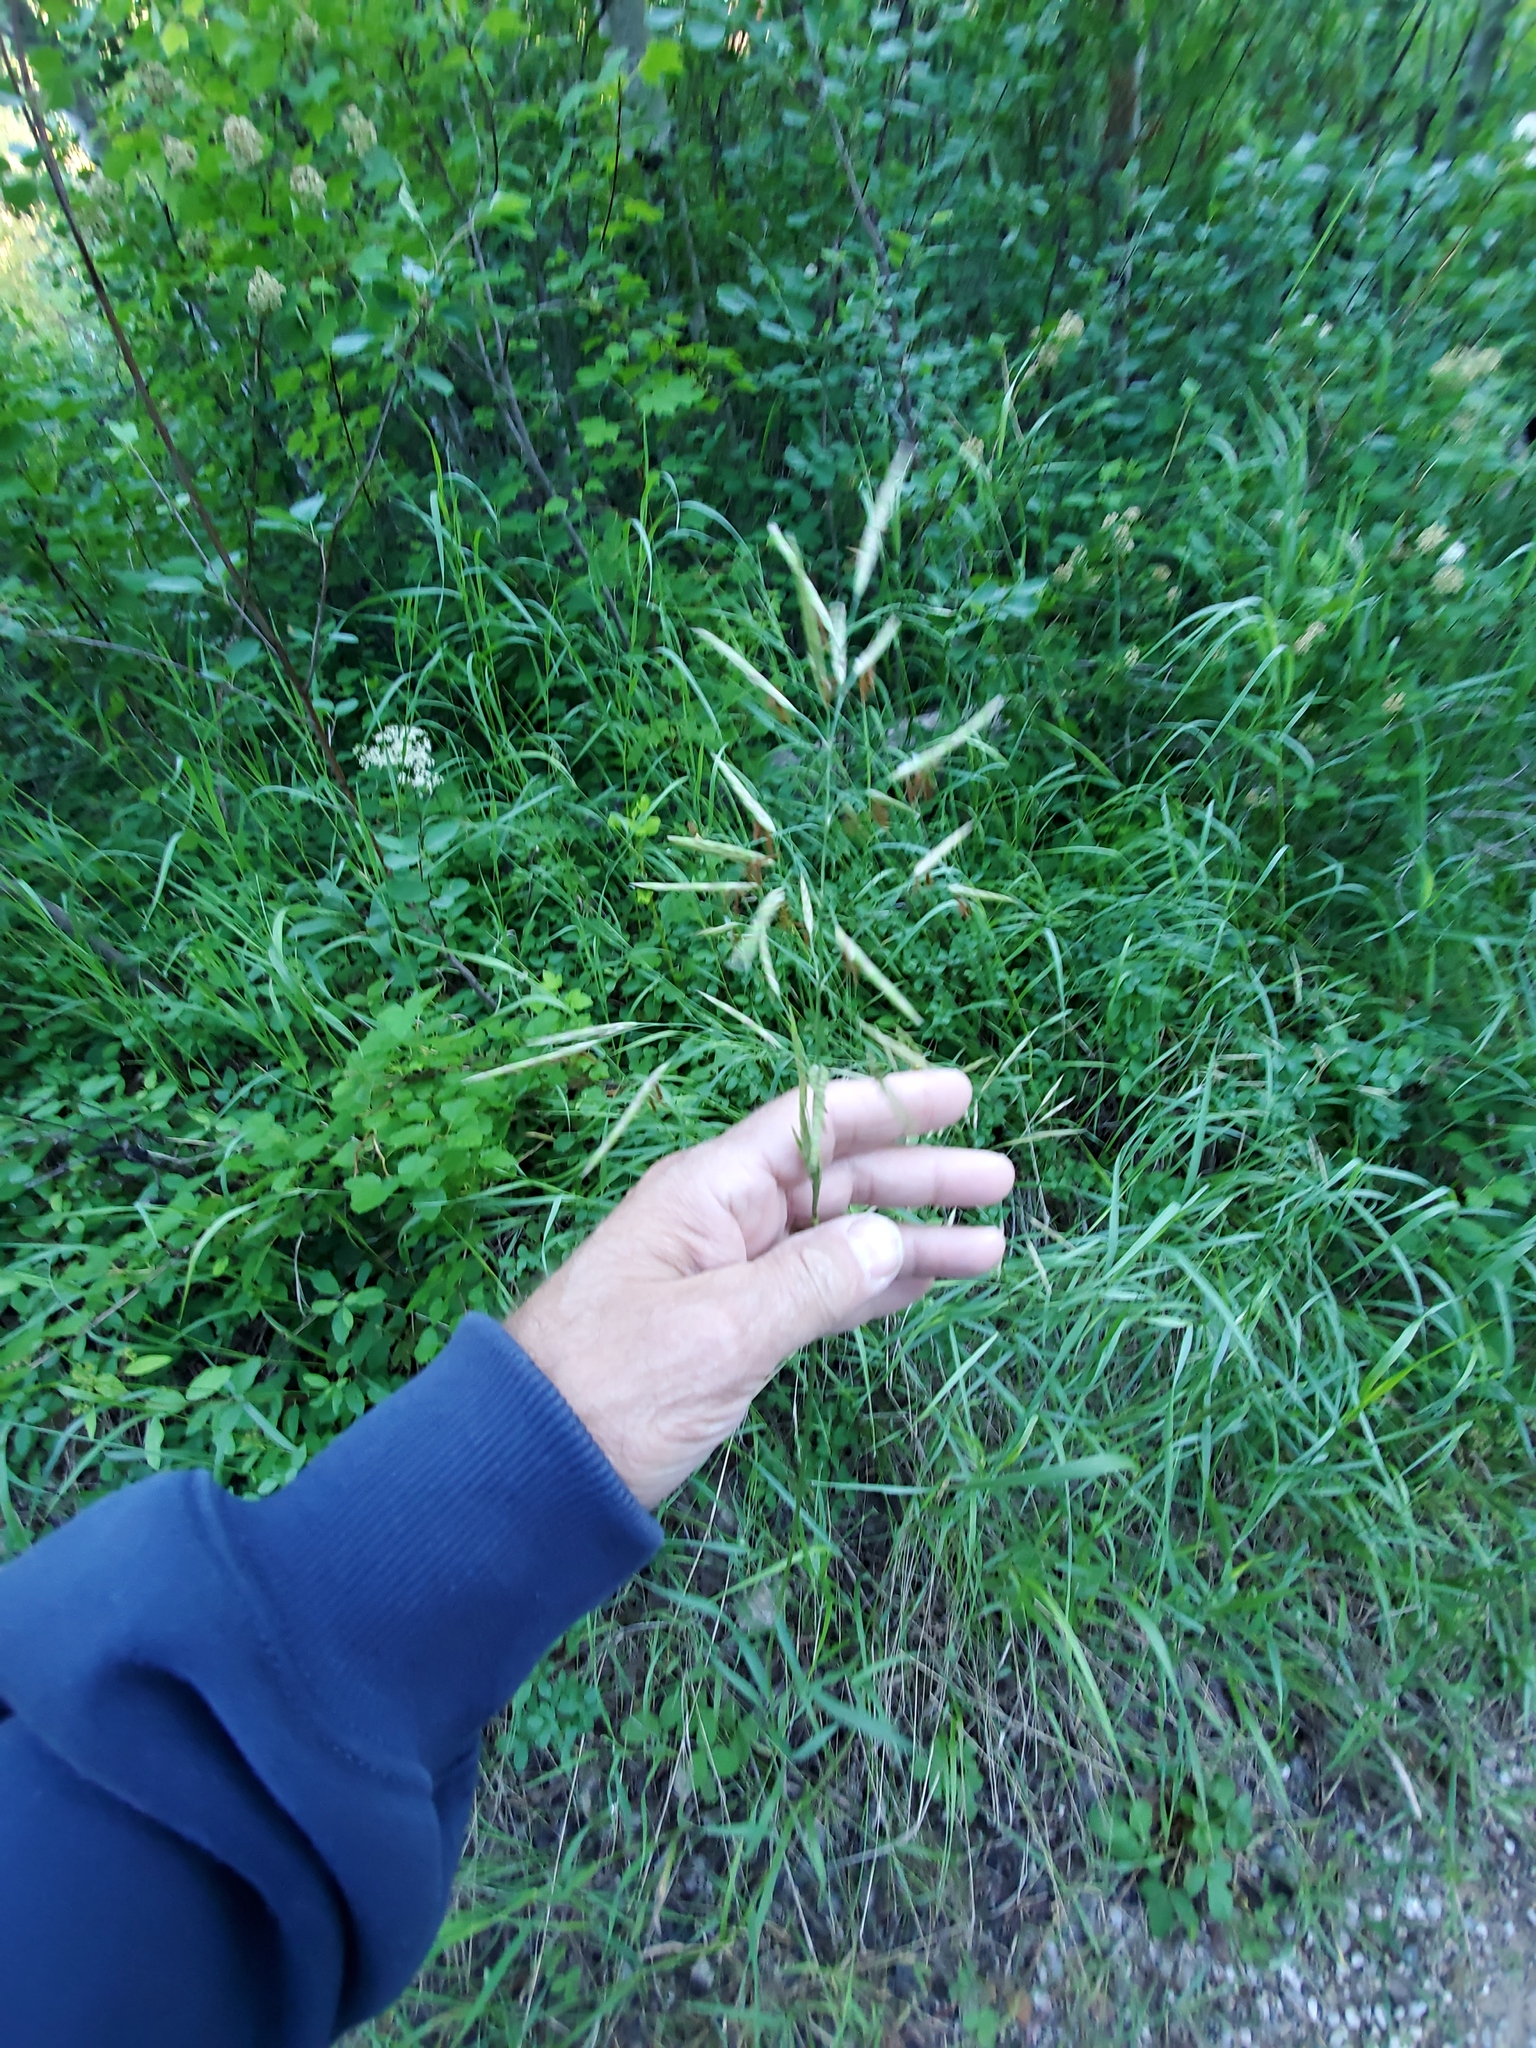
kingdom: Plantae
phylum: Tracheophyta
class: Liliopsida
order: Poales
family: Poaceae
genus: Bromus
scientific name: Bromus inermis
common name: Smooth brome
